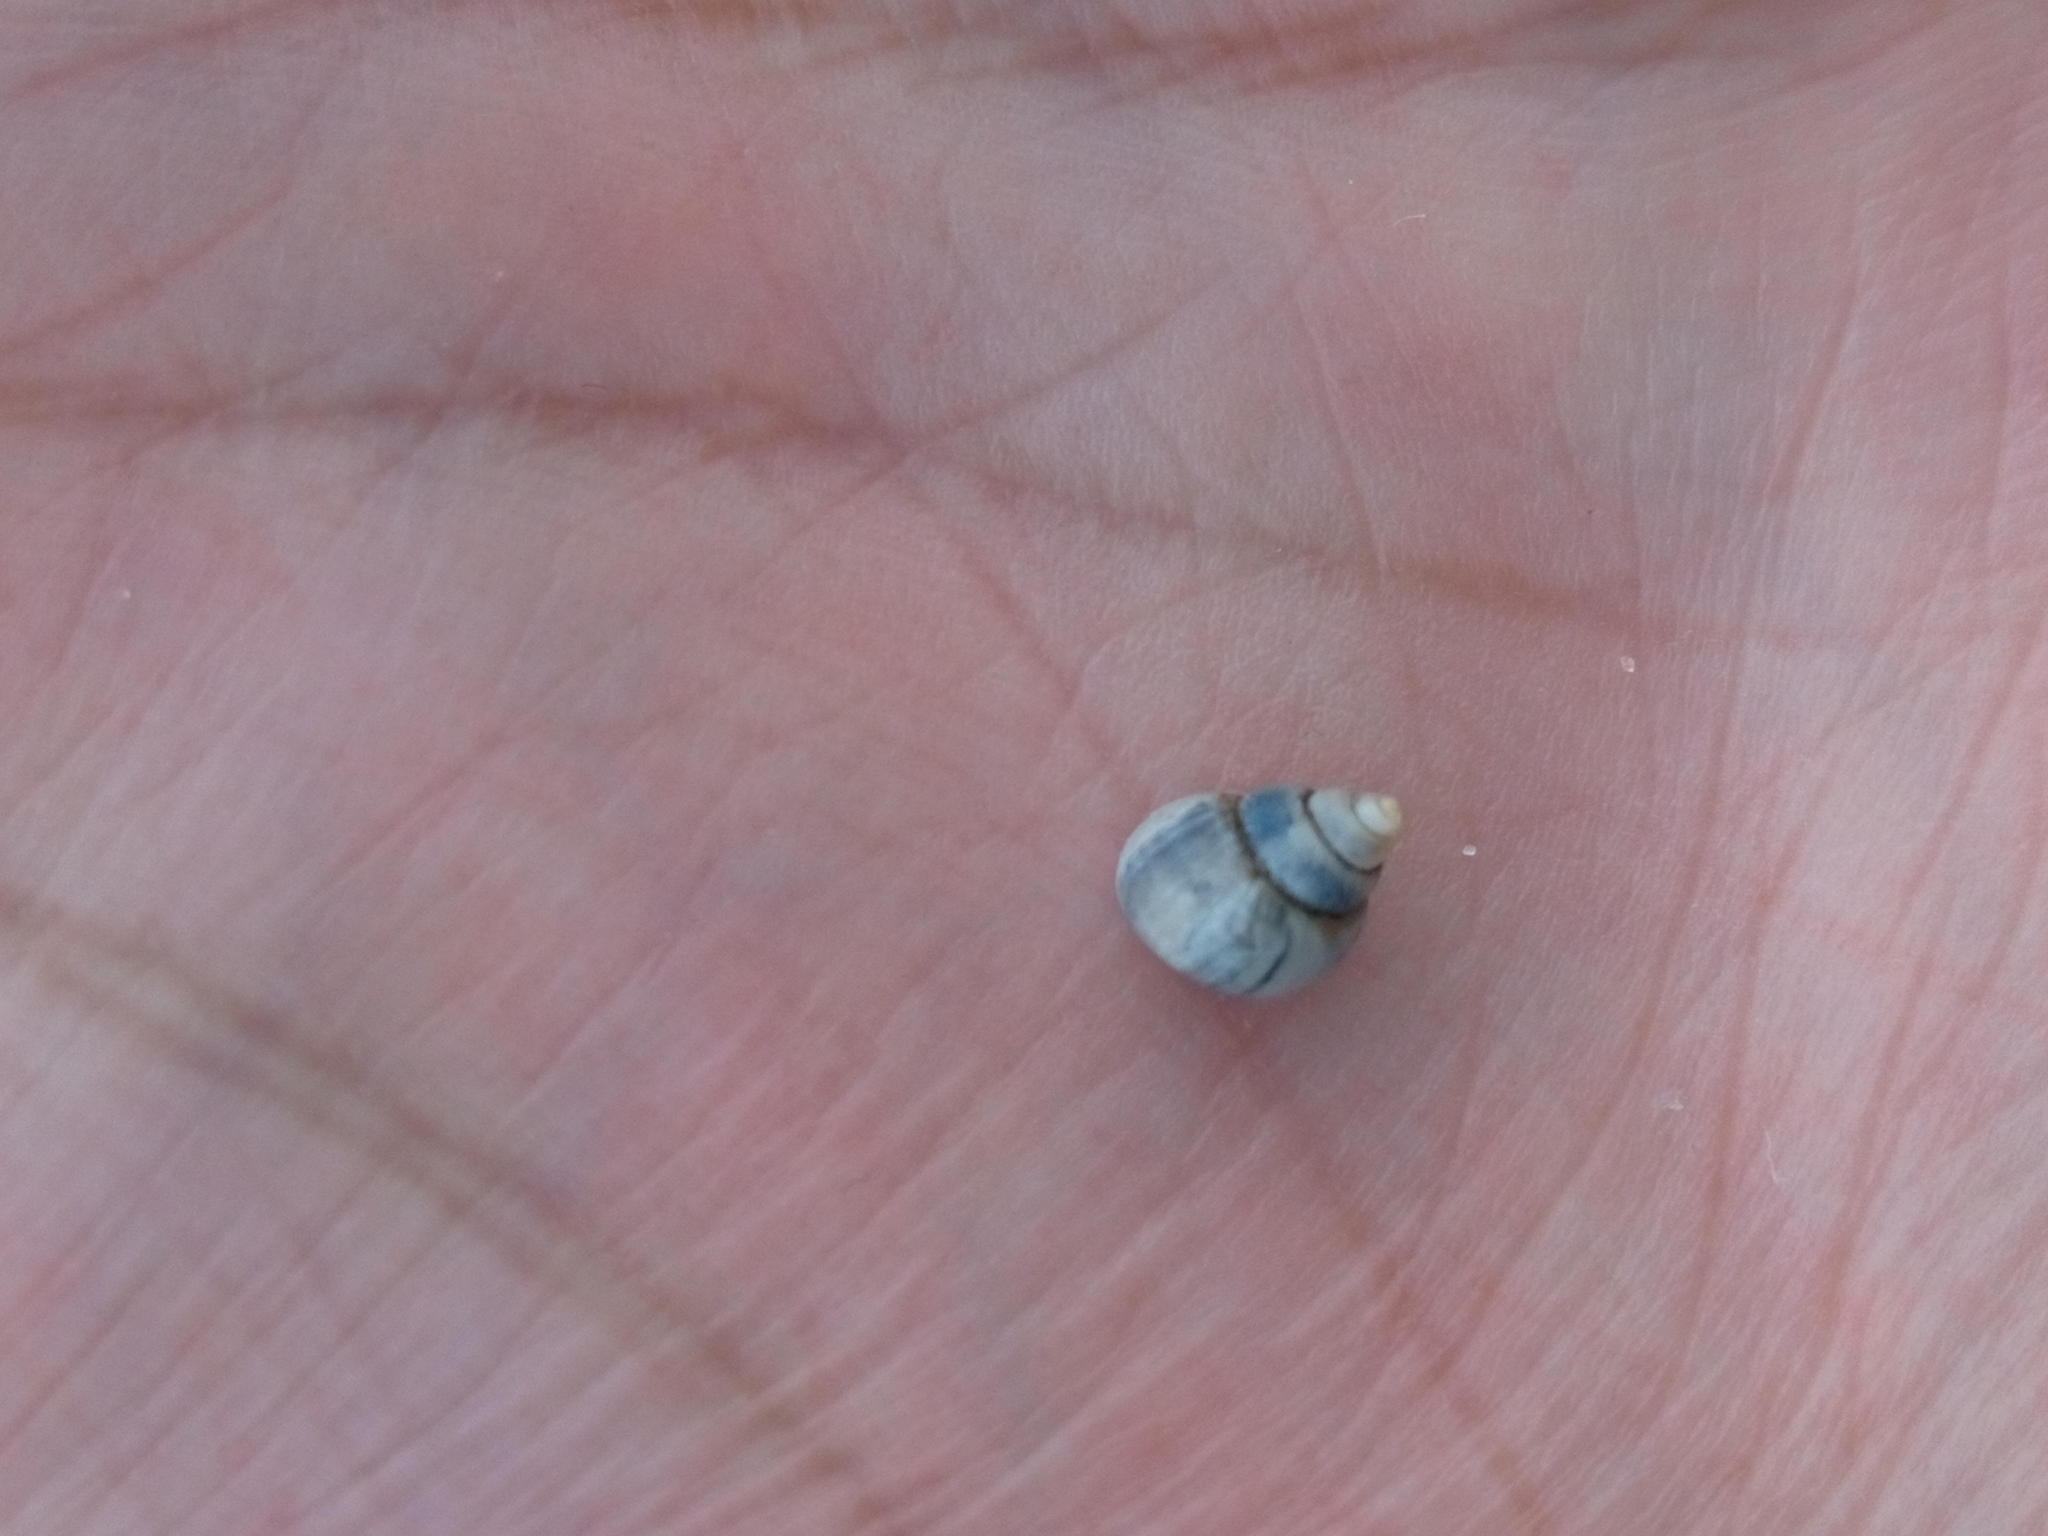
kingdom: Animalia
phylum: Mollusca
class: Gastropoda
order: Littorinimorpha
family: Bithyniidae
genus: Bithynia
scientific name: Bithynia tentaculata
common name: Common bithynia
